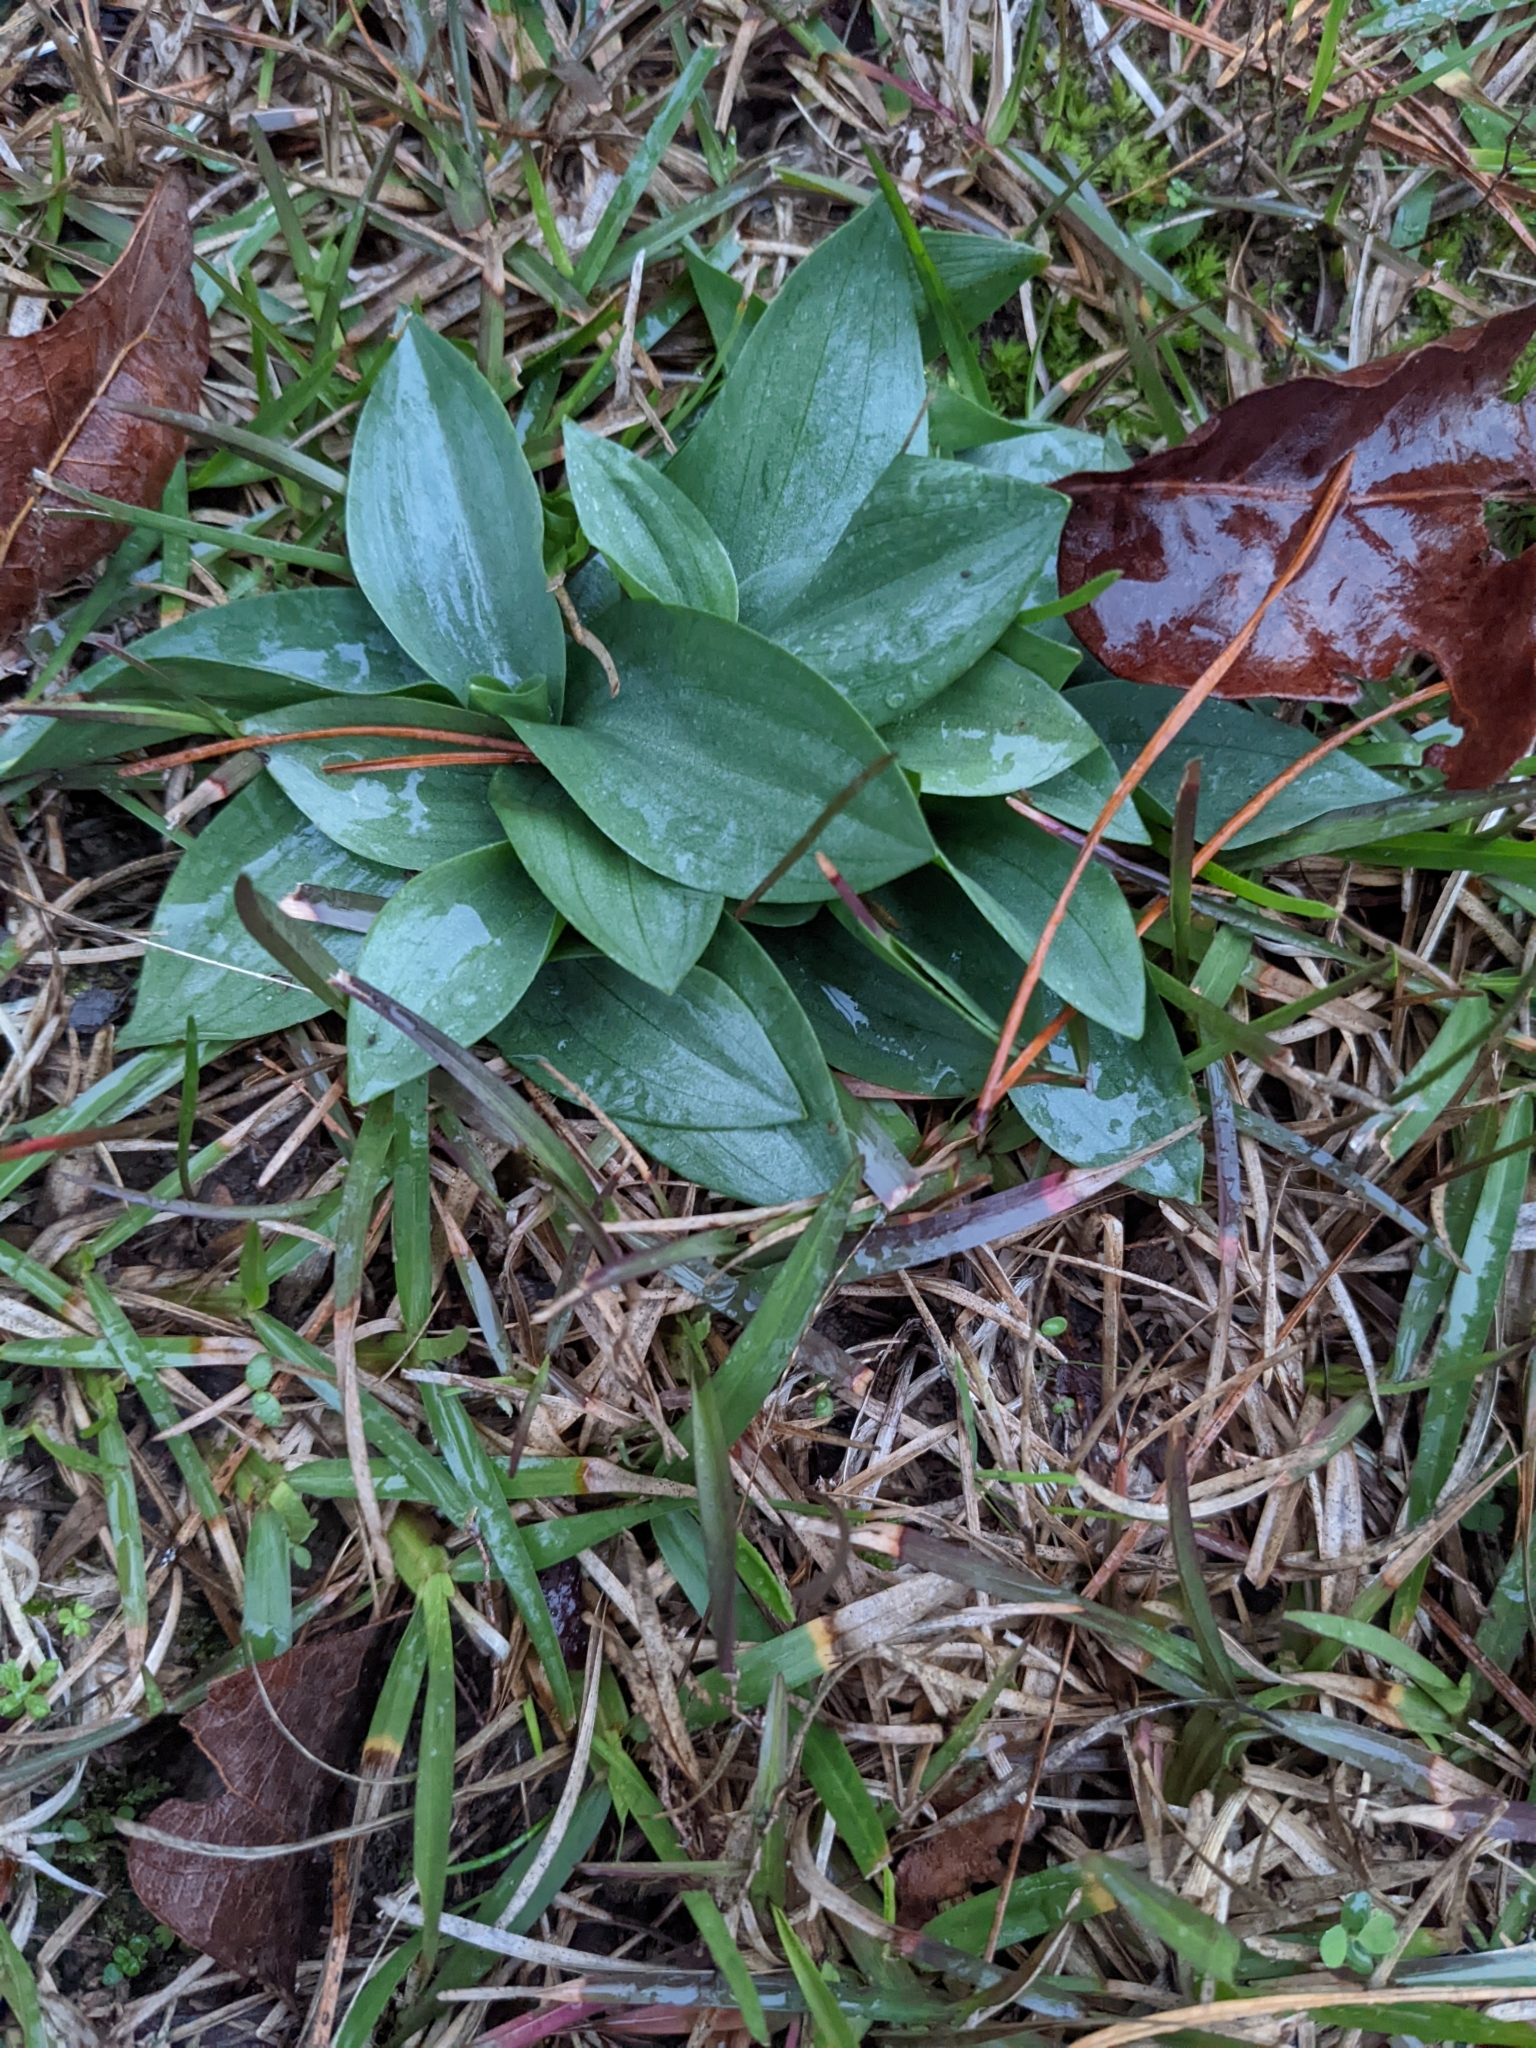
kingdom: Plantae
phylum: Tracheophyta
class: Liliopsida
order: Asparagales
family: Orchidaceae
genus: Spiranthes
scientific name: Spiranthes lacera
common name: Northern slender ladies'-tresses
